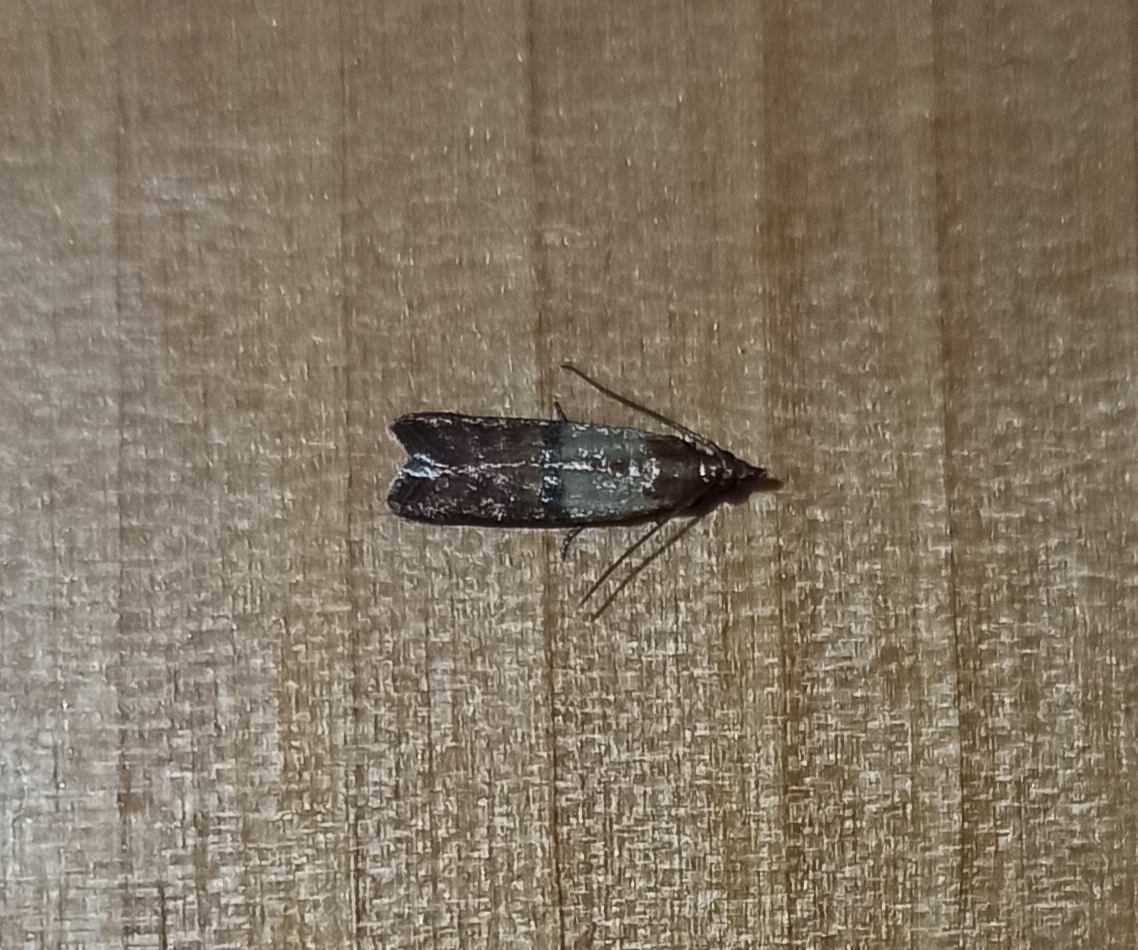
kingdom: Animalia
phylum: Arthropoda
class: Insecta
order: Lepidoptera
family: Pyralidae
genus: Plodia
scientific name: Plodia interpunctella
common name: Indian meal moth
